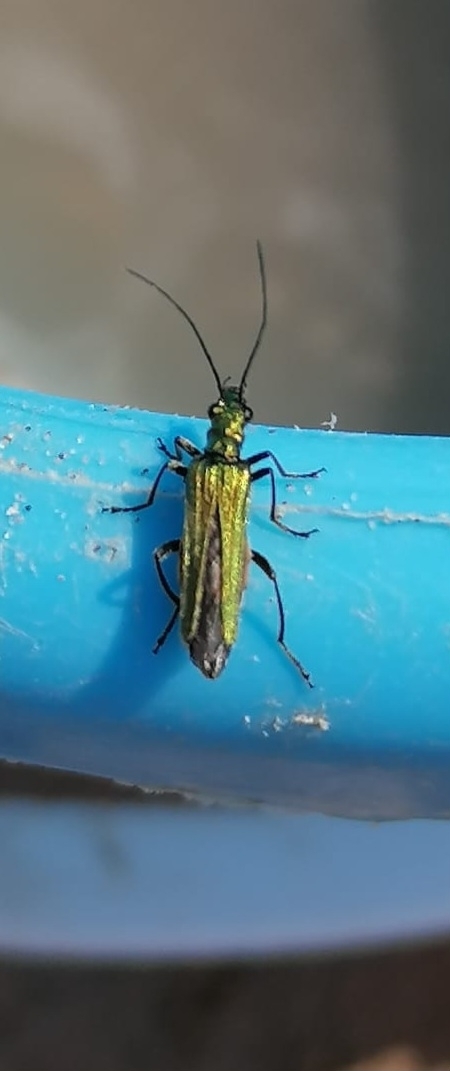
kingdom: Animalia
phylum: Arthropoda
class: Insecta
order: Coleoptera
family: Oedemeridae
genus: Oedemera
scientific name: Oedemera nobilis
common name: Swollen-thighed beetle
